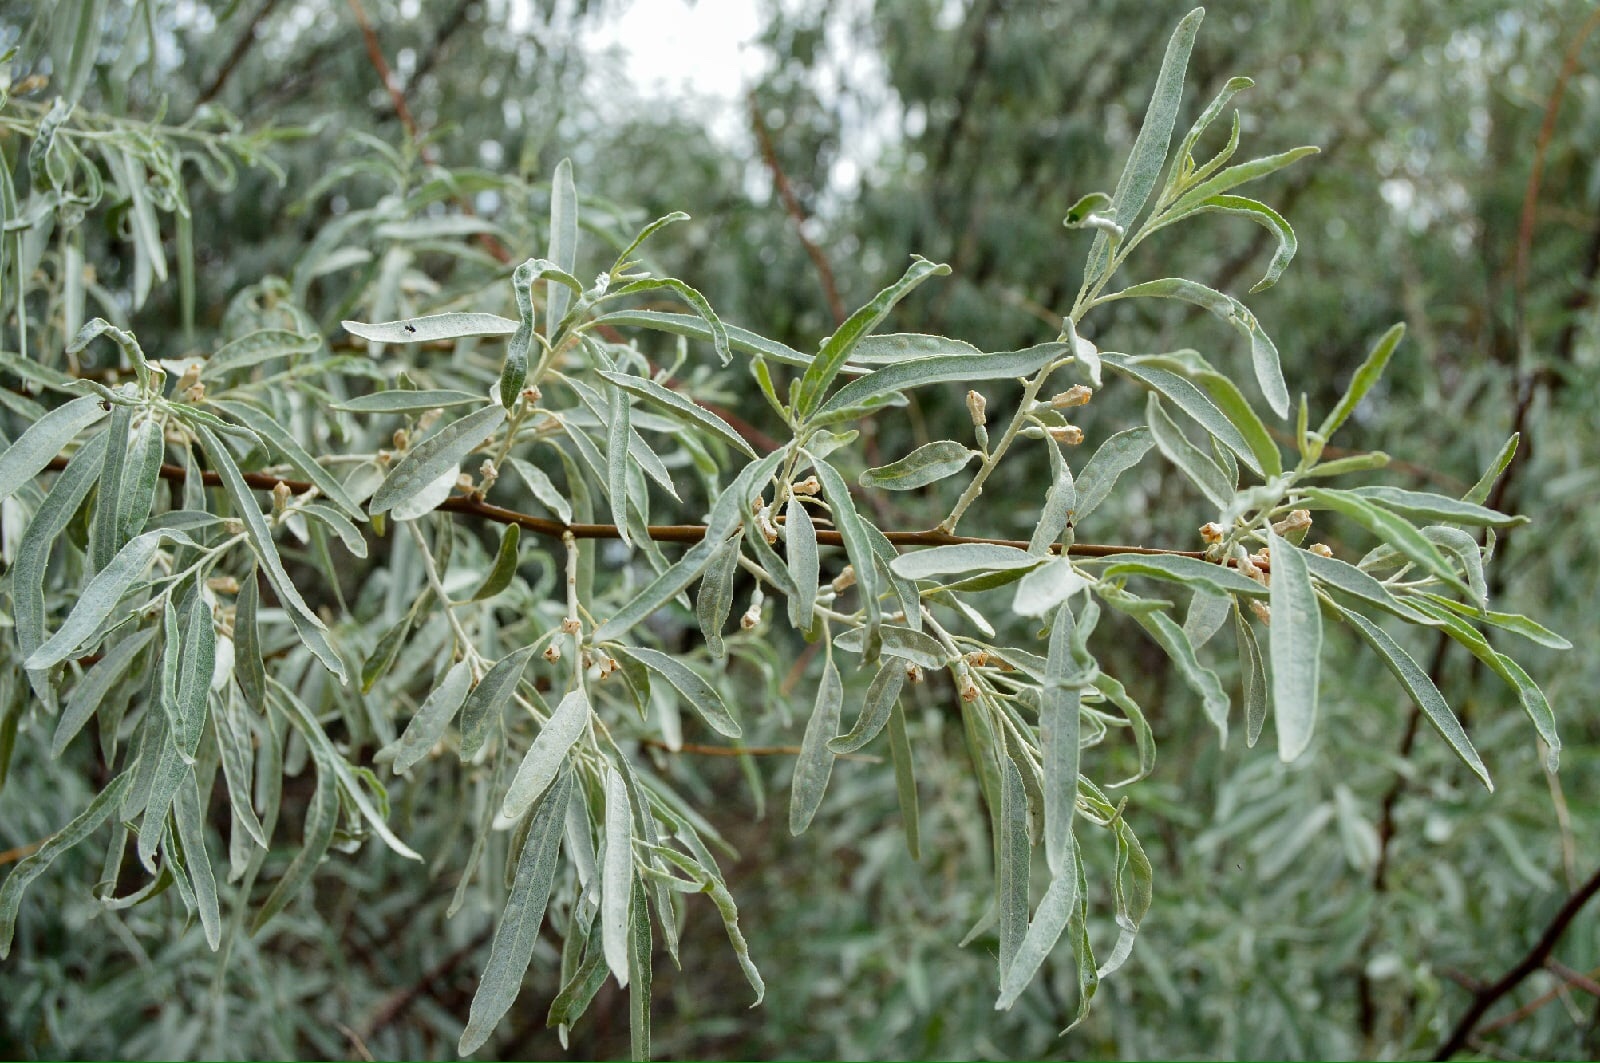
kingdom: Plantae
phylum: Tracheophyta
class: Magnoliopsida
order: Rosales
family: Elaeagnaceae
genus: Elaeagnus
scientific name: Elaeagnus angustifolia
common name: Russian olive
